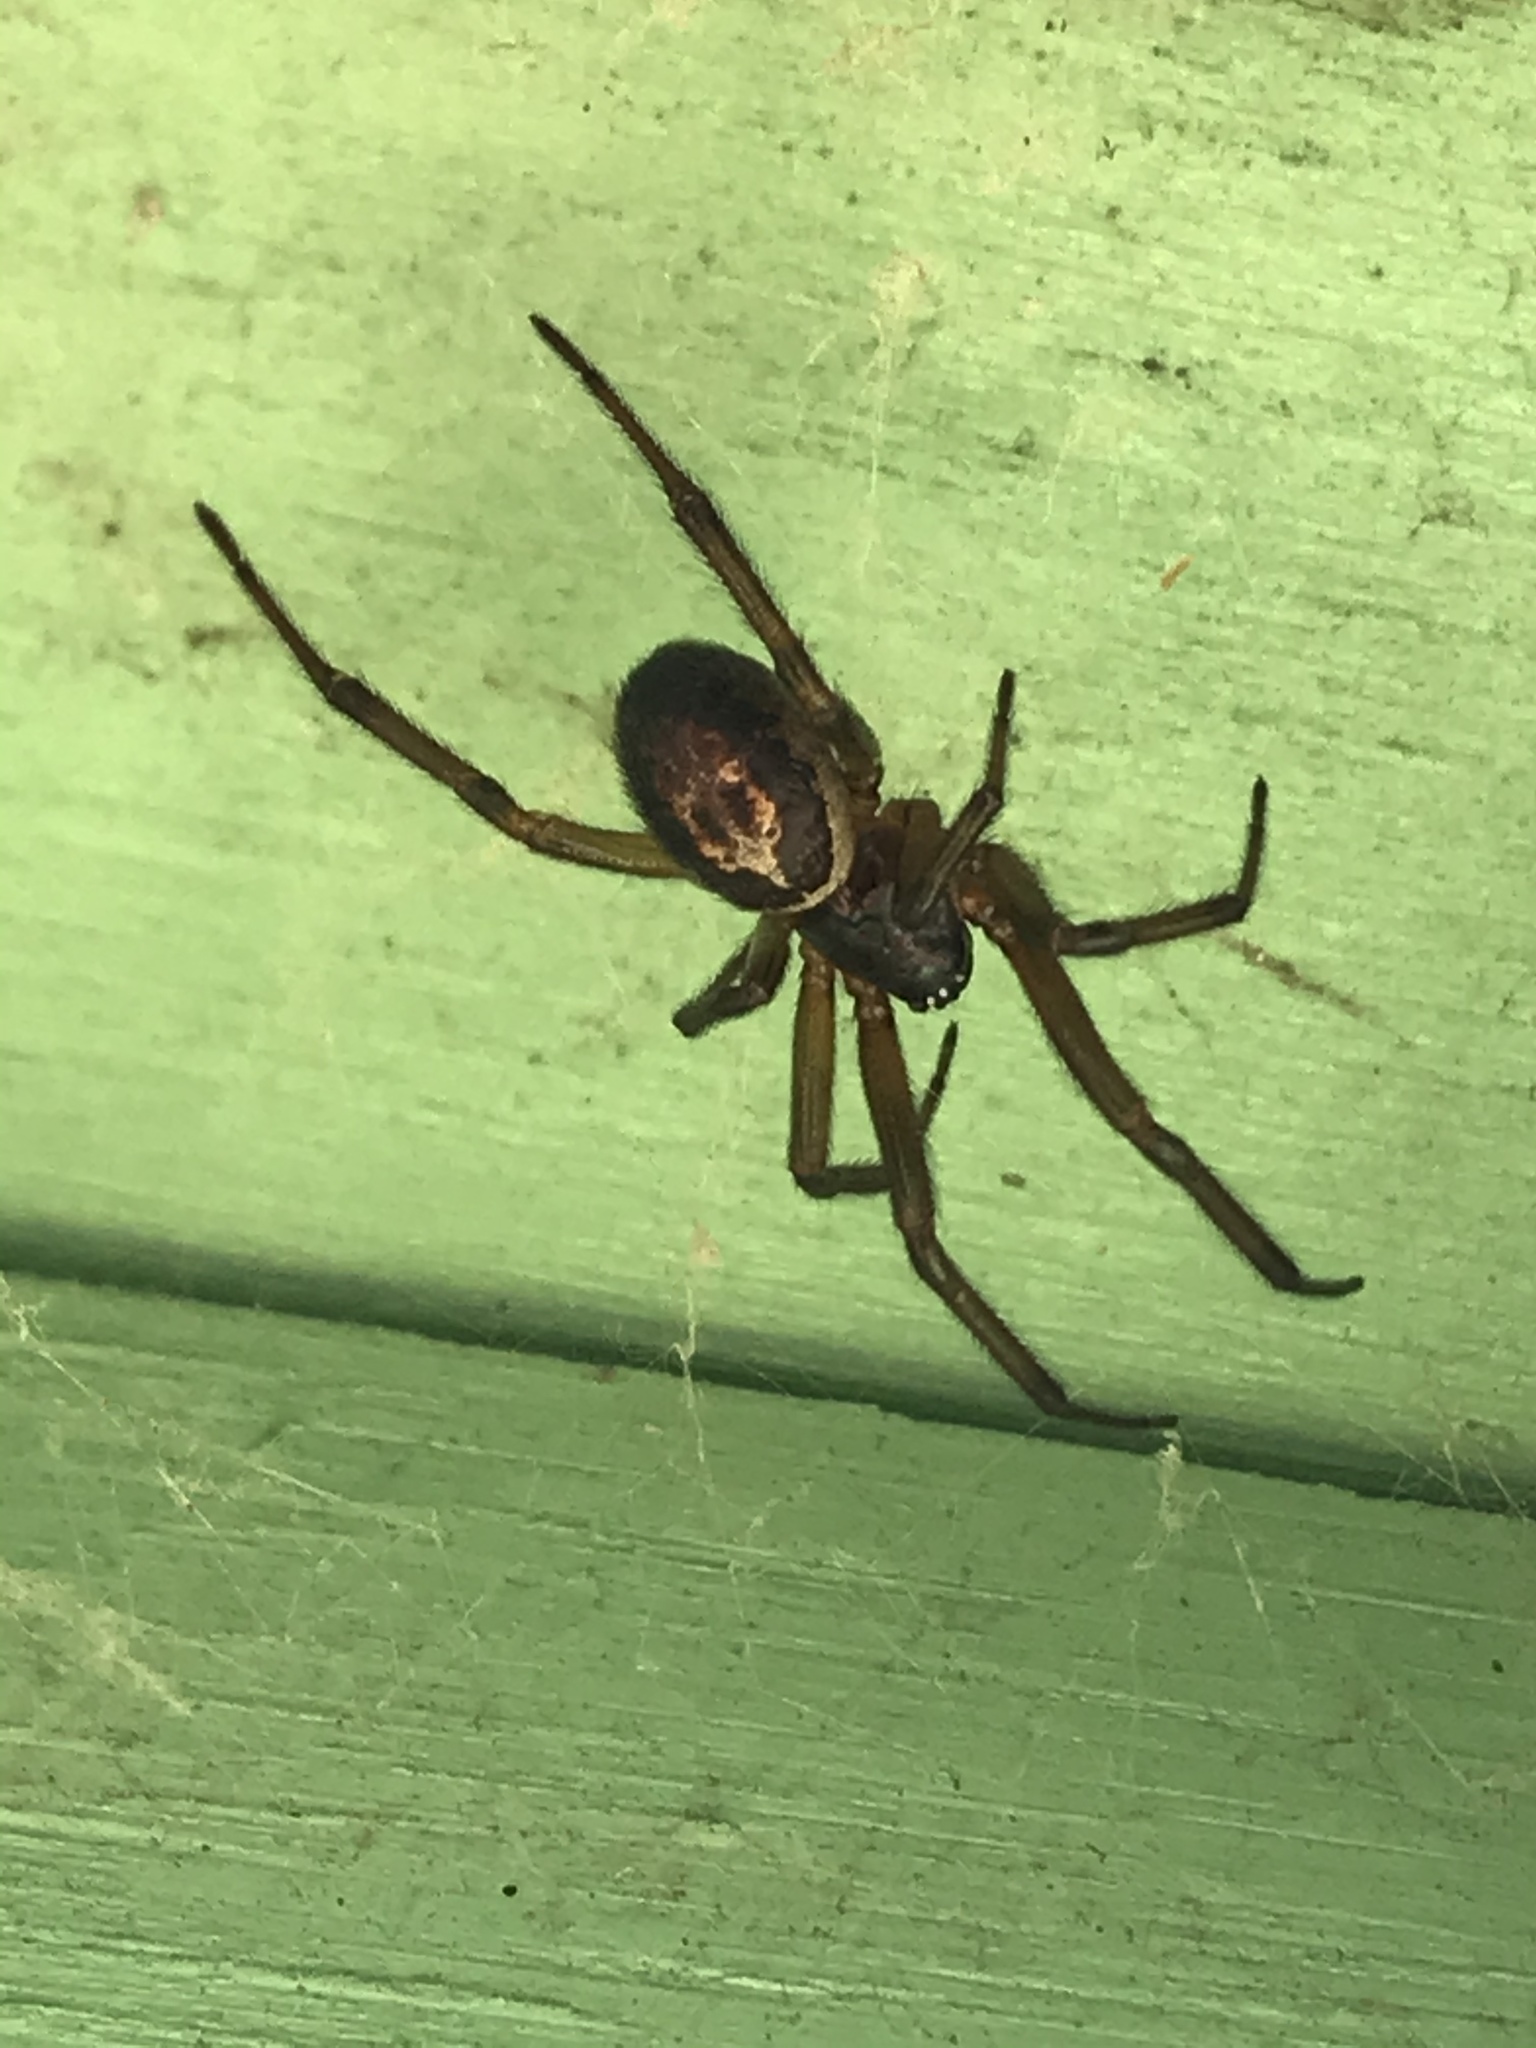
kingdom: Animalia
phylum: Arthropoda
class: Arachnida
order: Araneae
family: Theridiidae
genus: Steatoda
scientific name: Steatoda nobilis
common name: Cobweb weaver
